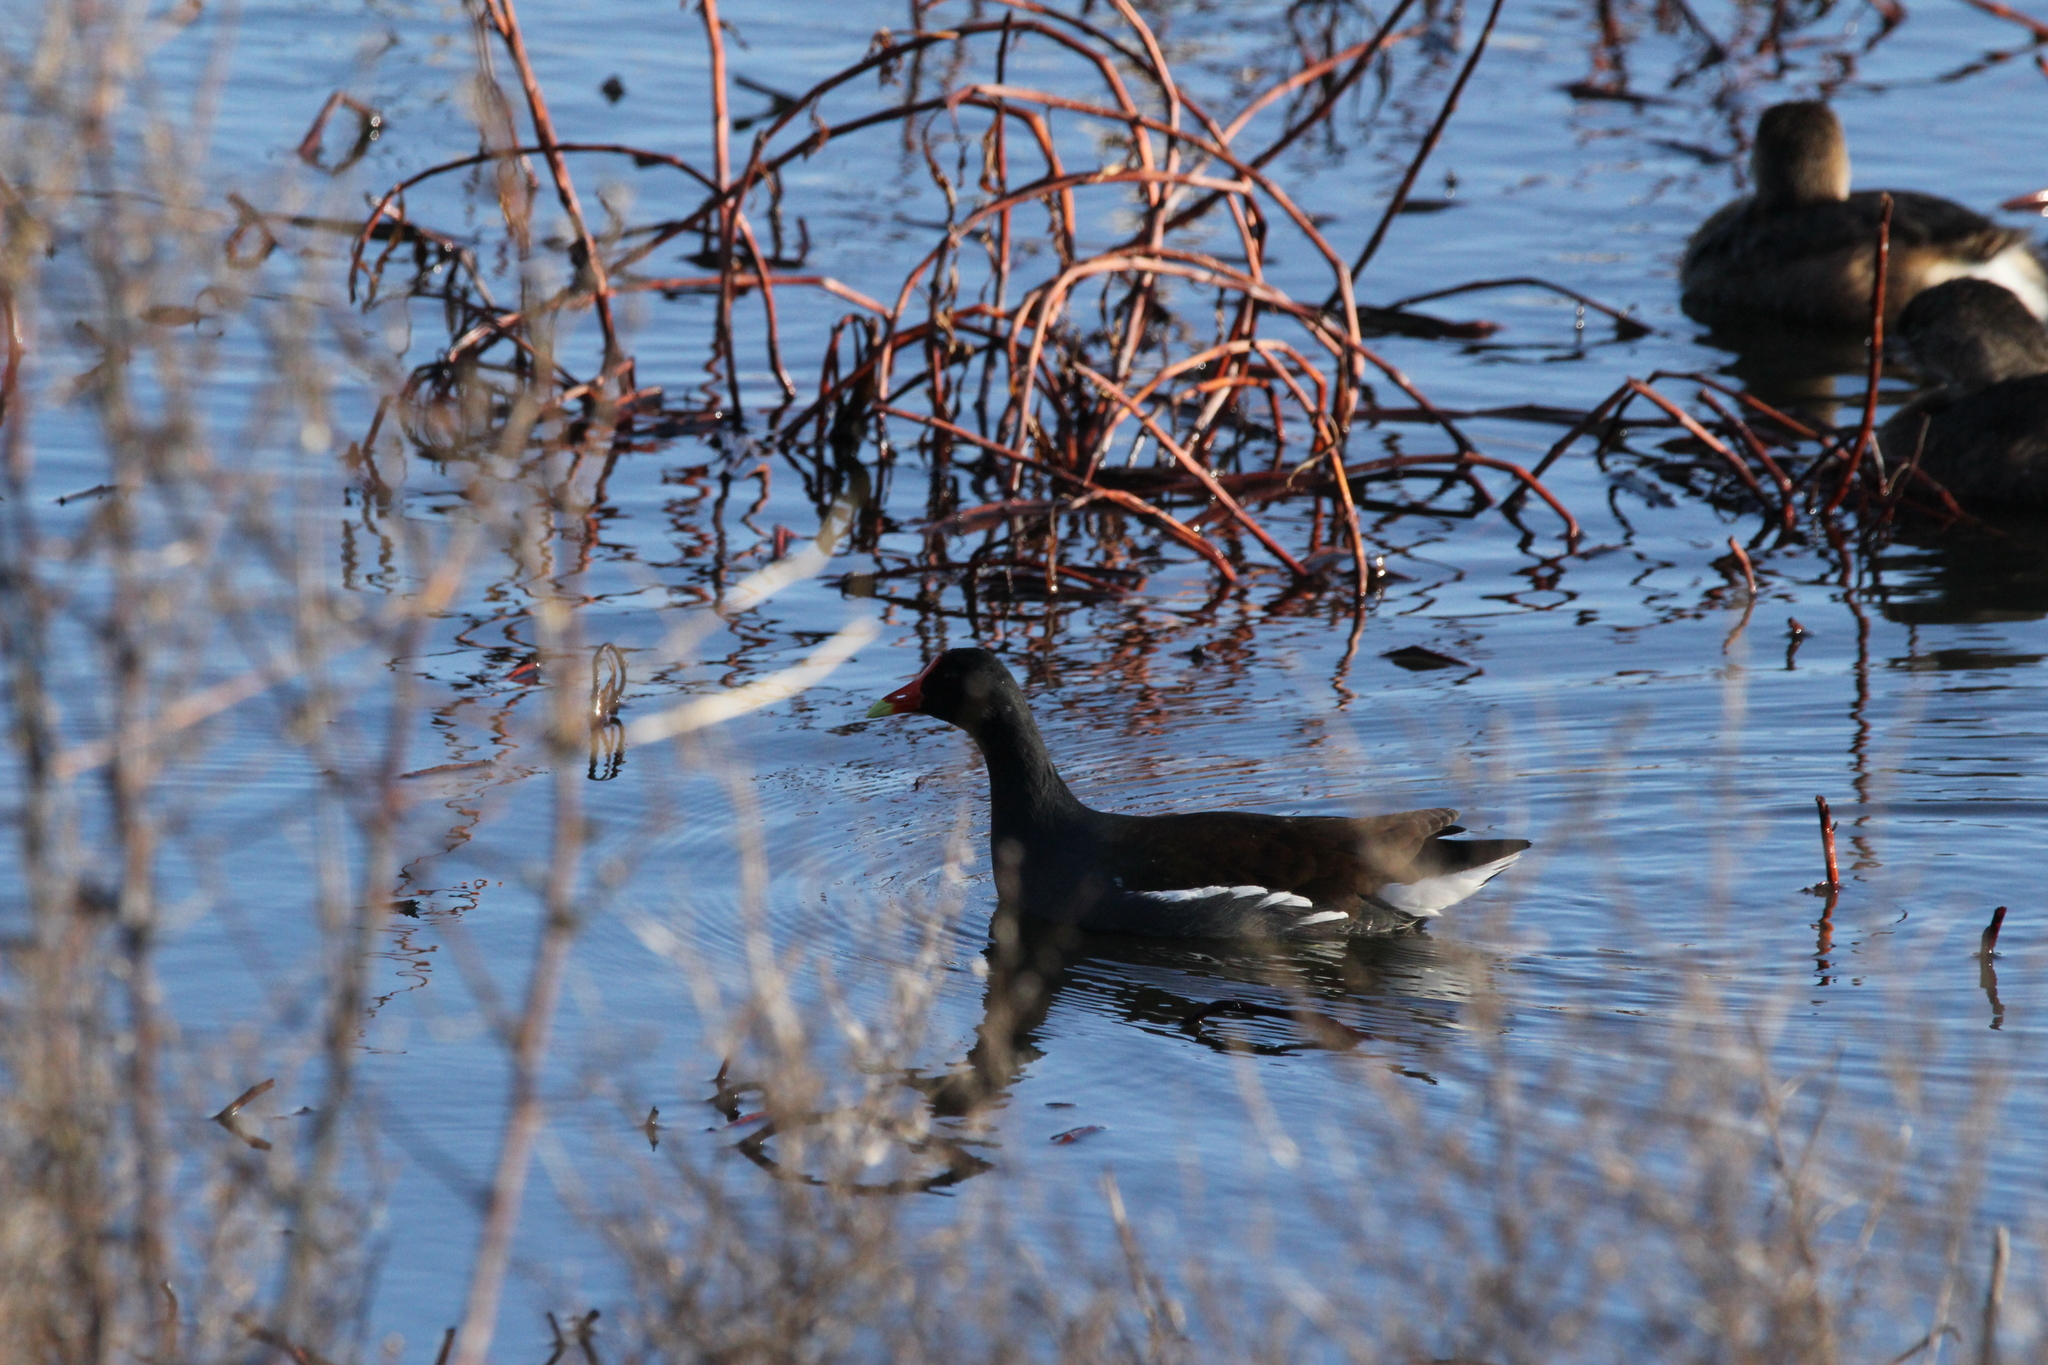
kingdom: Animalia
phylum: Chordata
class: Aves
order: Gruiformes
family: Rallidae
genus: Gallinula
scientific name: Gallinula chloropus
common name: Common moorhen
